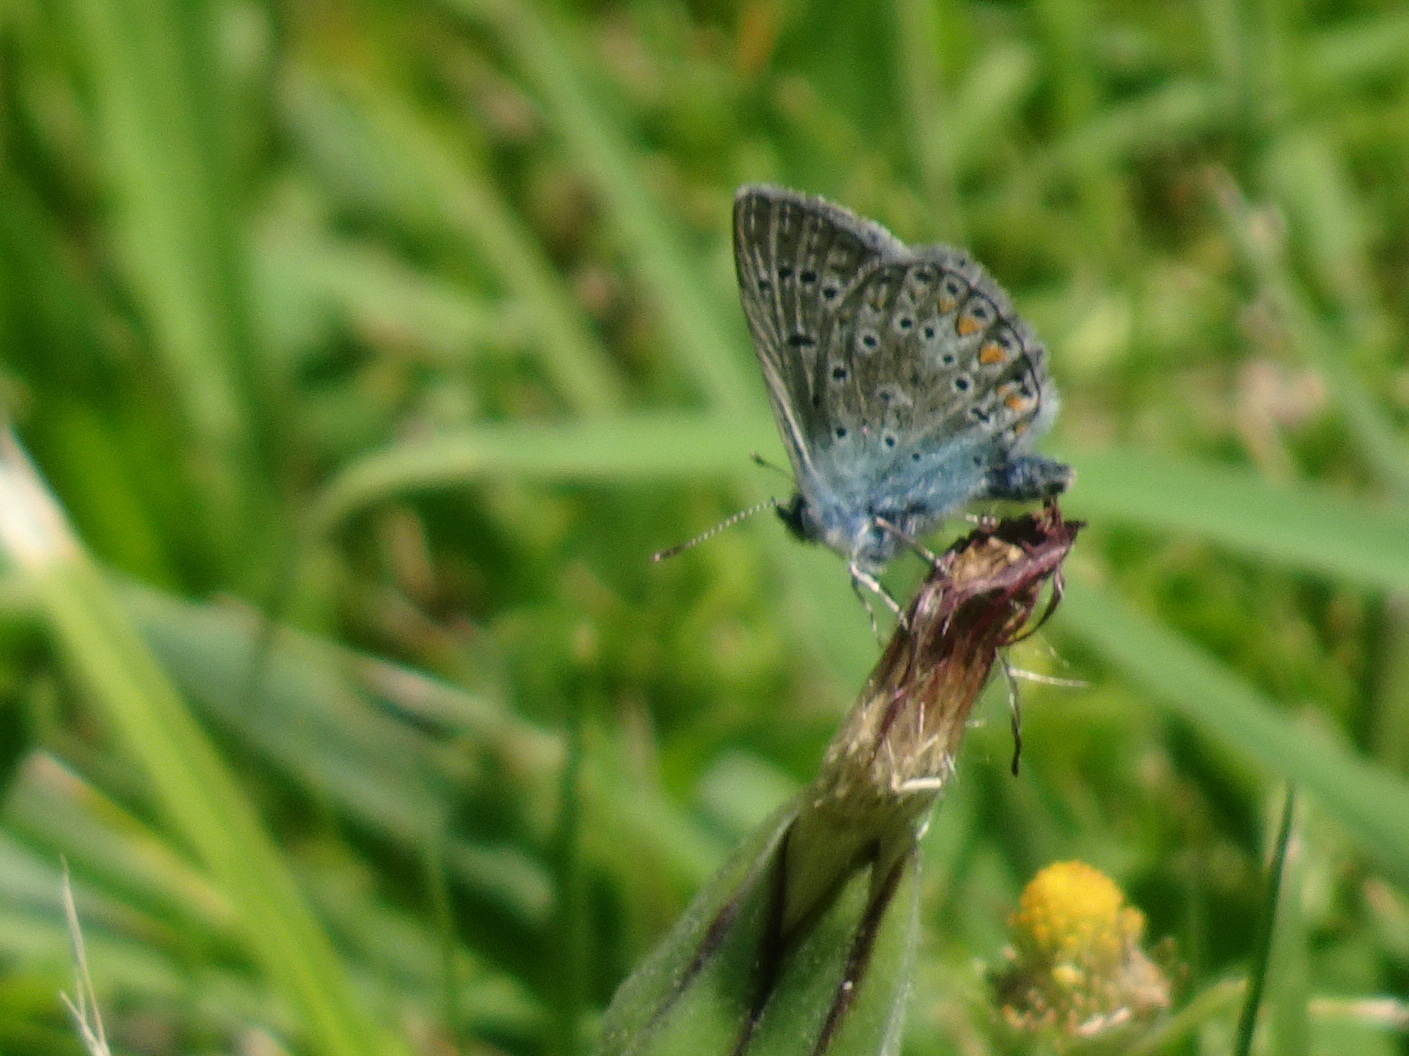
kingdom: Animalia
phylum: Arthropoda
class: Insecta
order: Lepidoptera
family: Lycaenidae
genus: Polyommatus
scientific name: Polyommatus icarus
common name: Common blue
